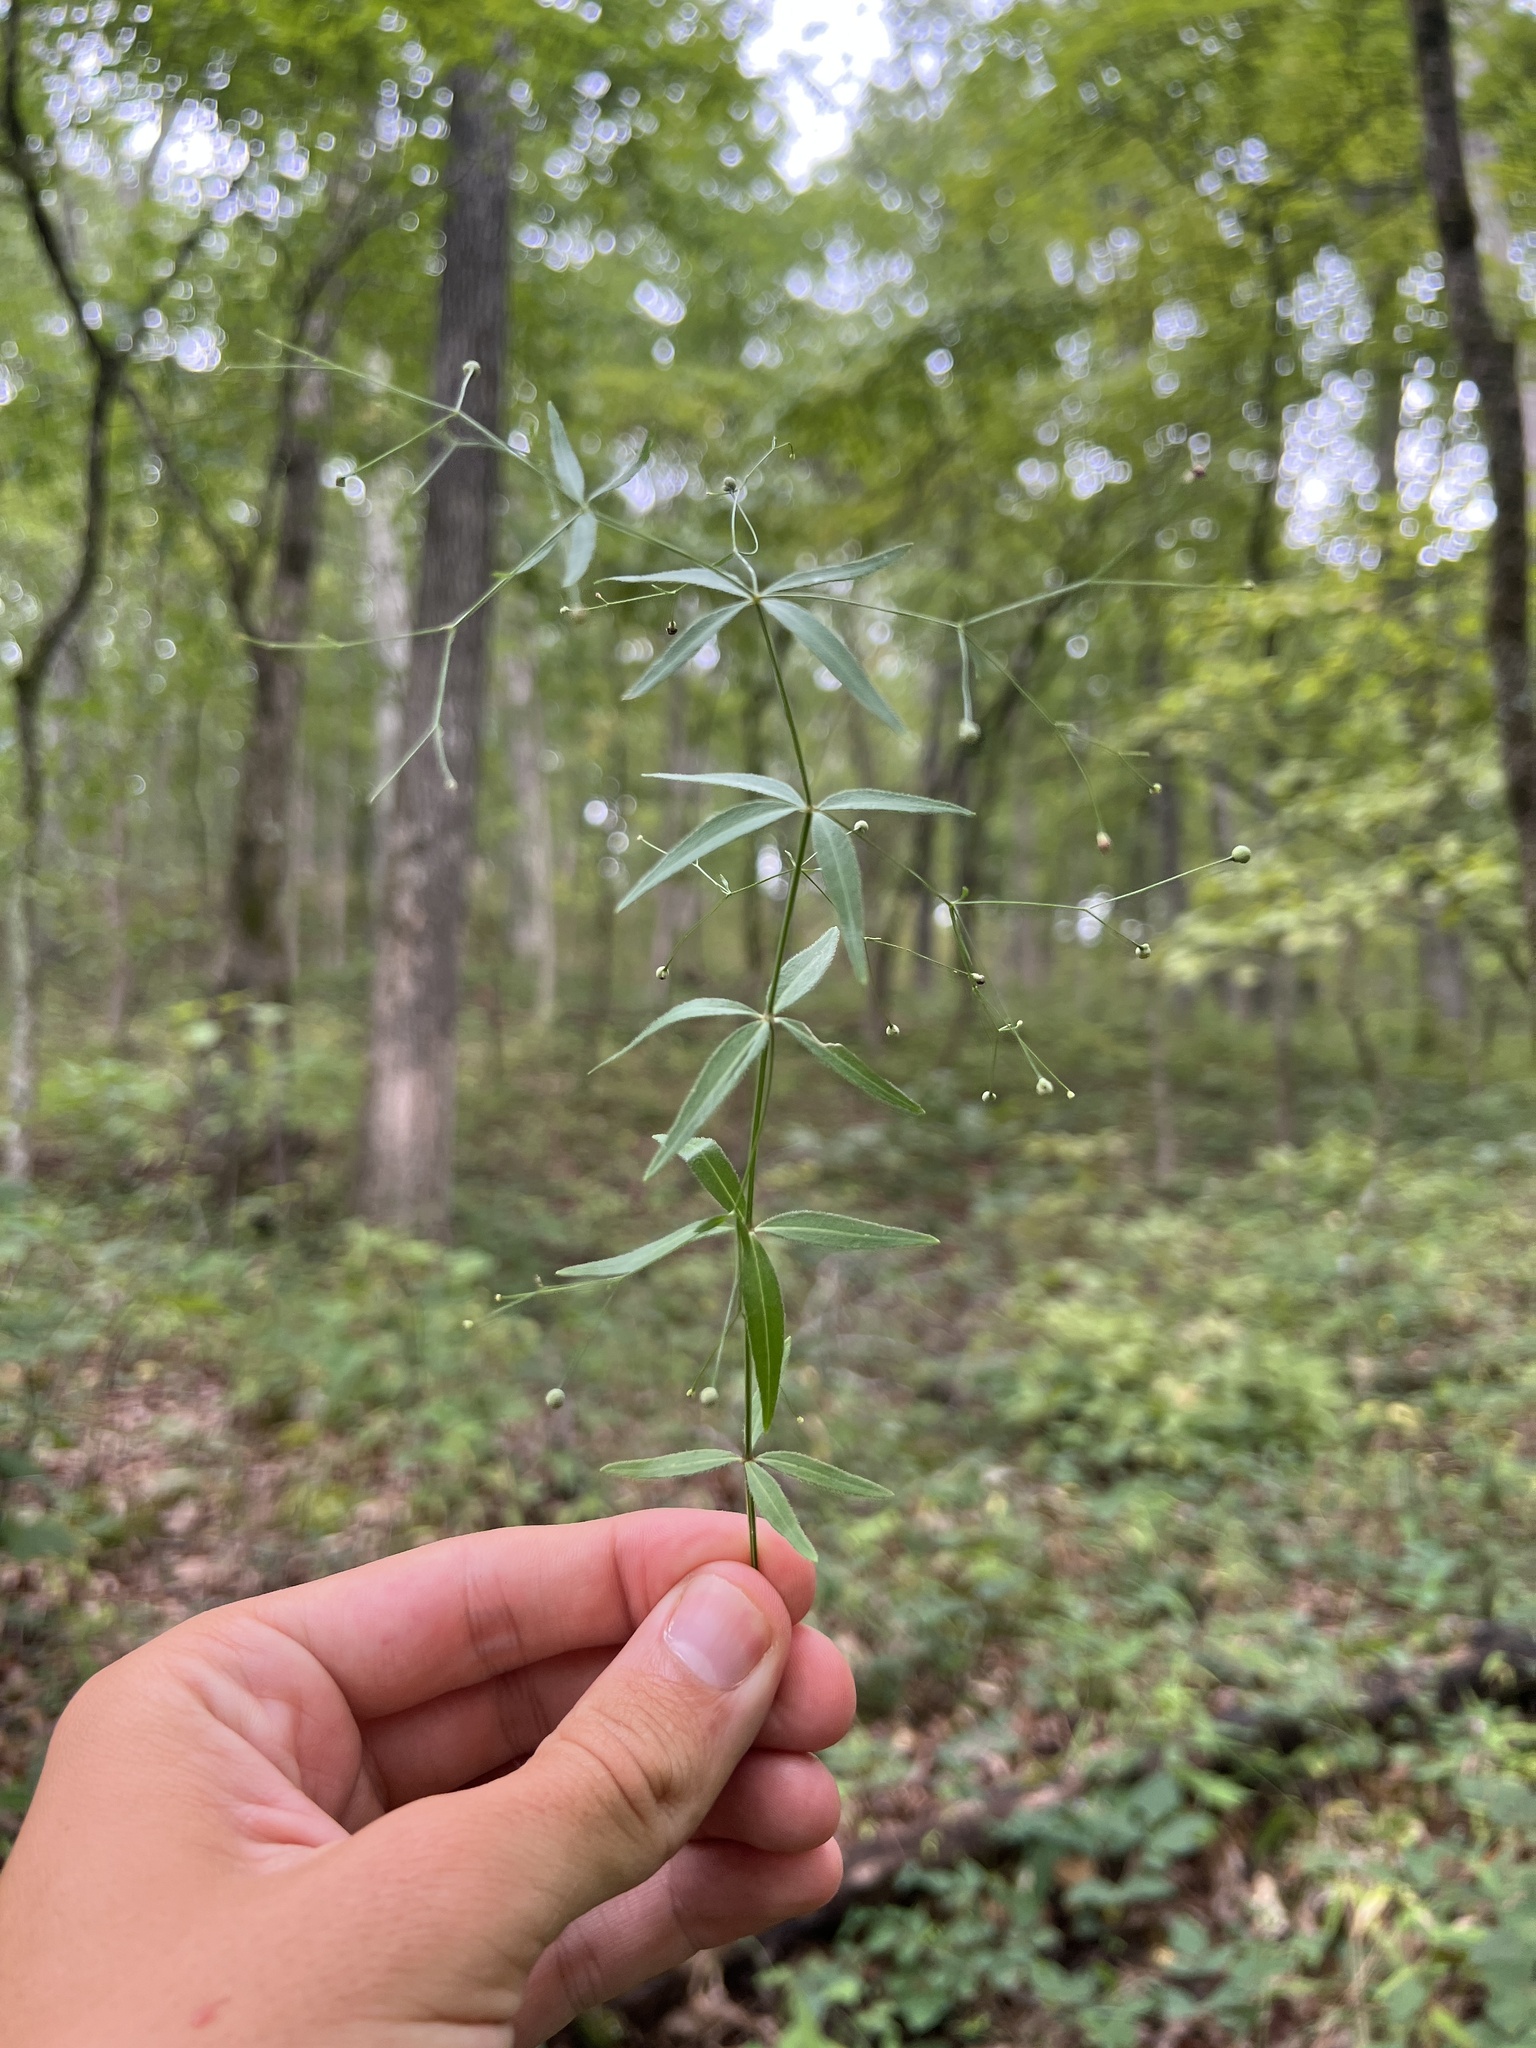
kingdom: Plantae
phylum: Tracheophyta
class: Magnoliopsida
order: Gentianales
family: Rubiaceae
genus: Galium
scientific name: Galium arkansanum
